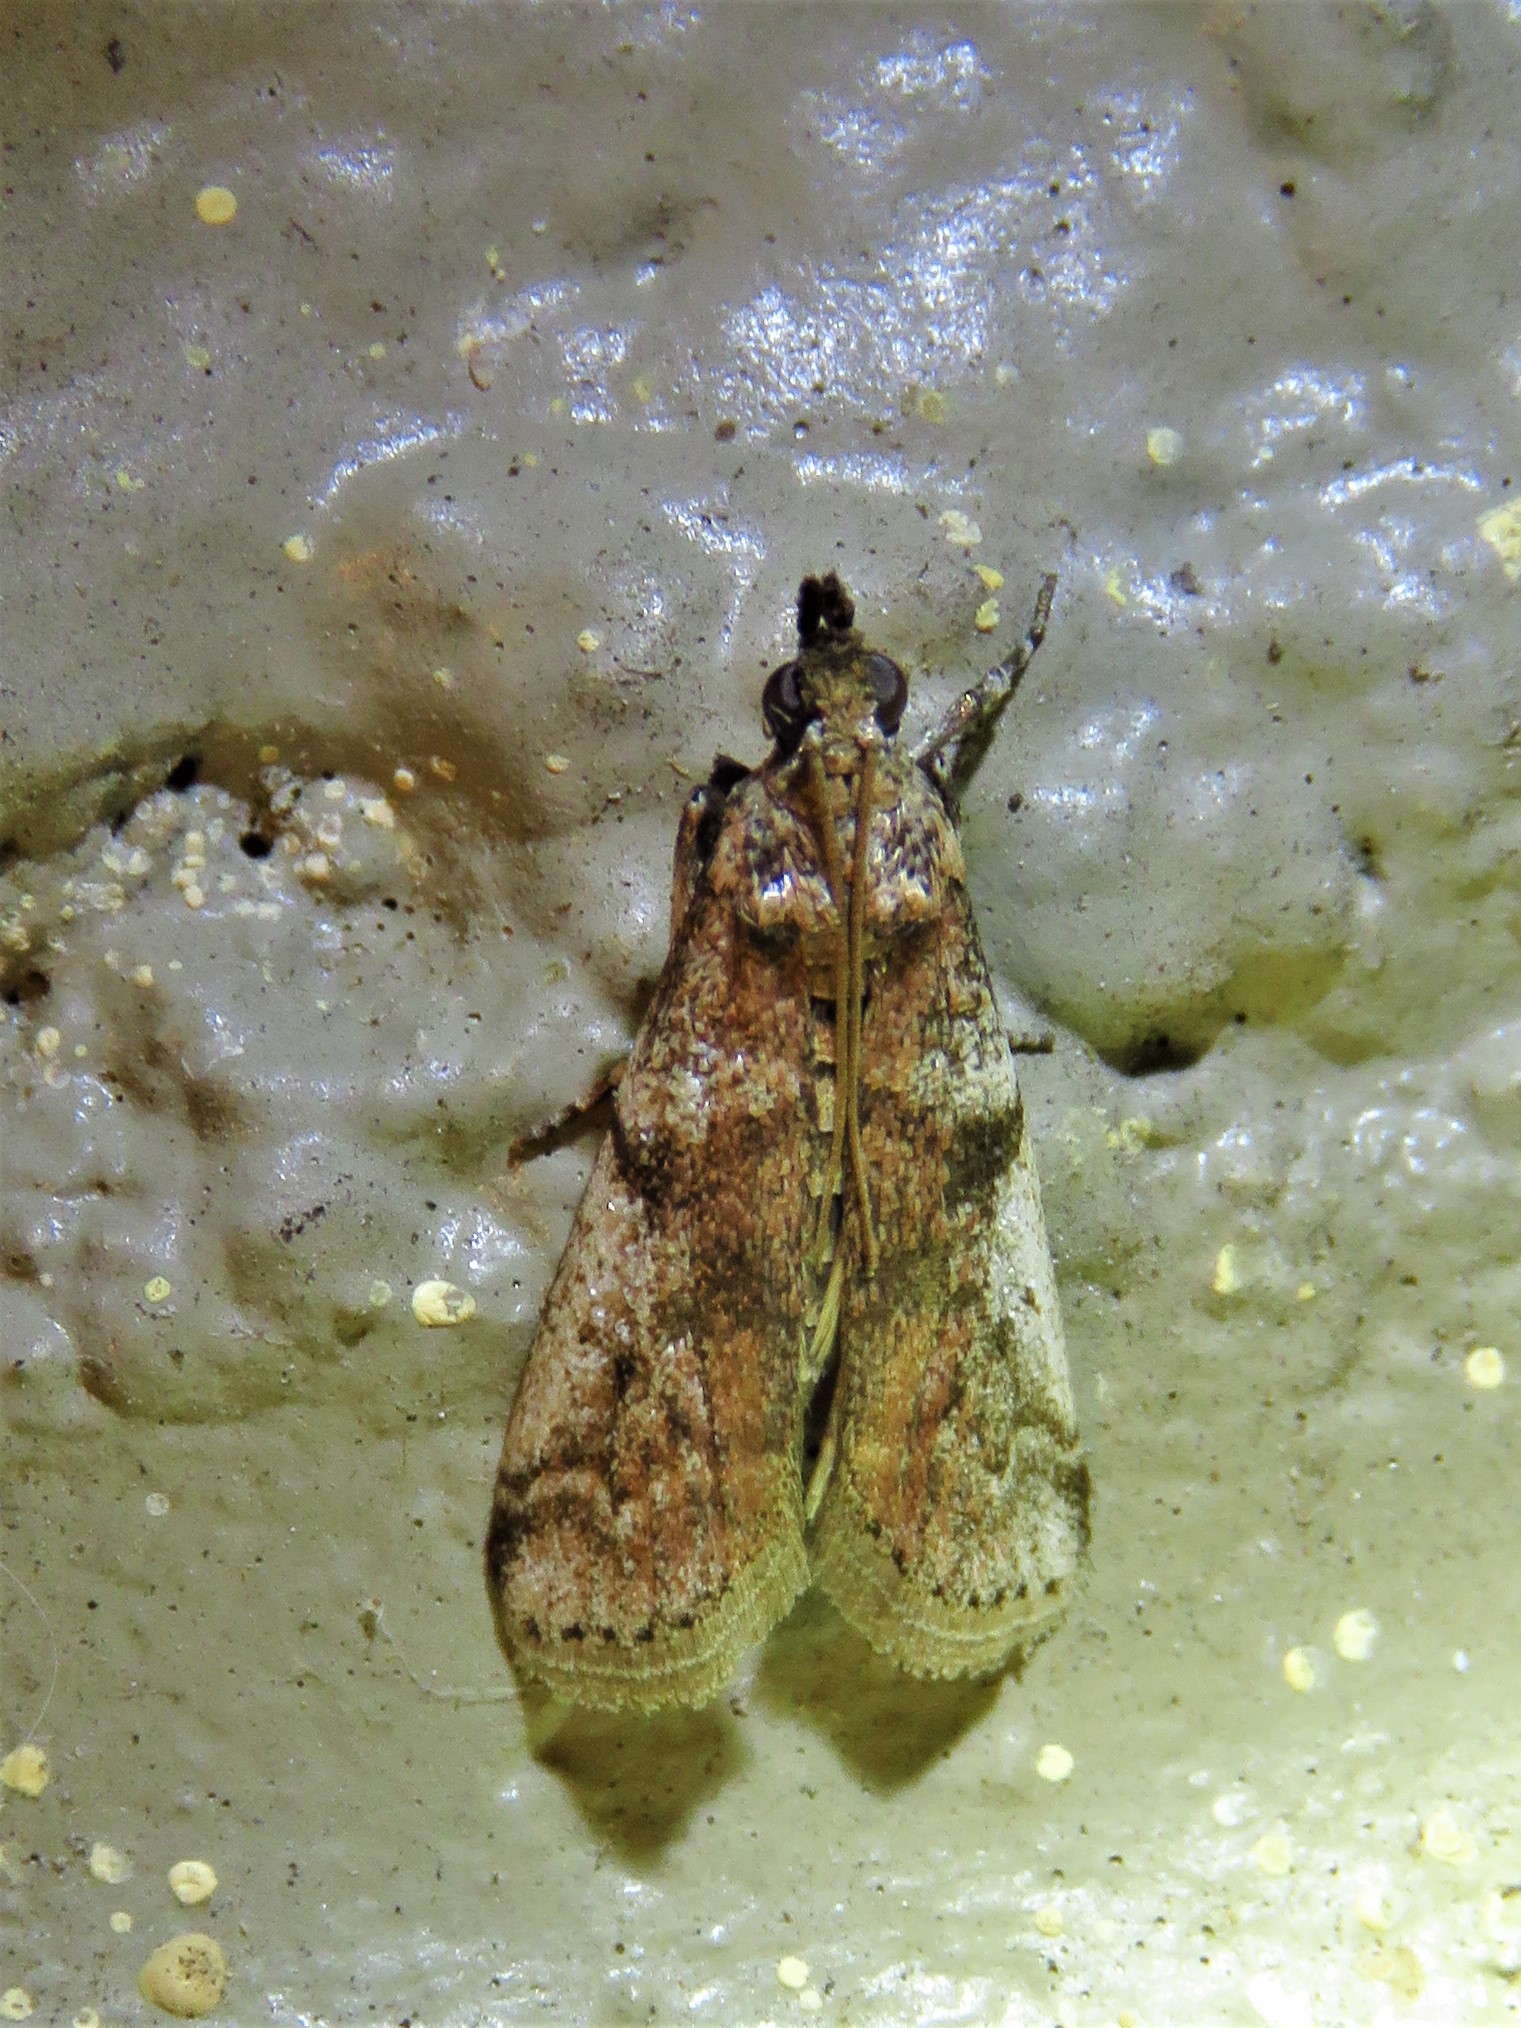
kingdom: Animalia
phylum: Arthropoda
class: Insecta
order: Lepidoptera
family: Pyralidae
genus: Laetilia
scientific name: Laetilia coccidivora
